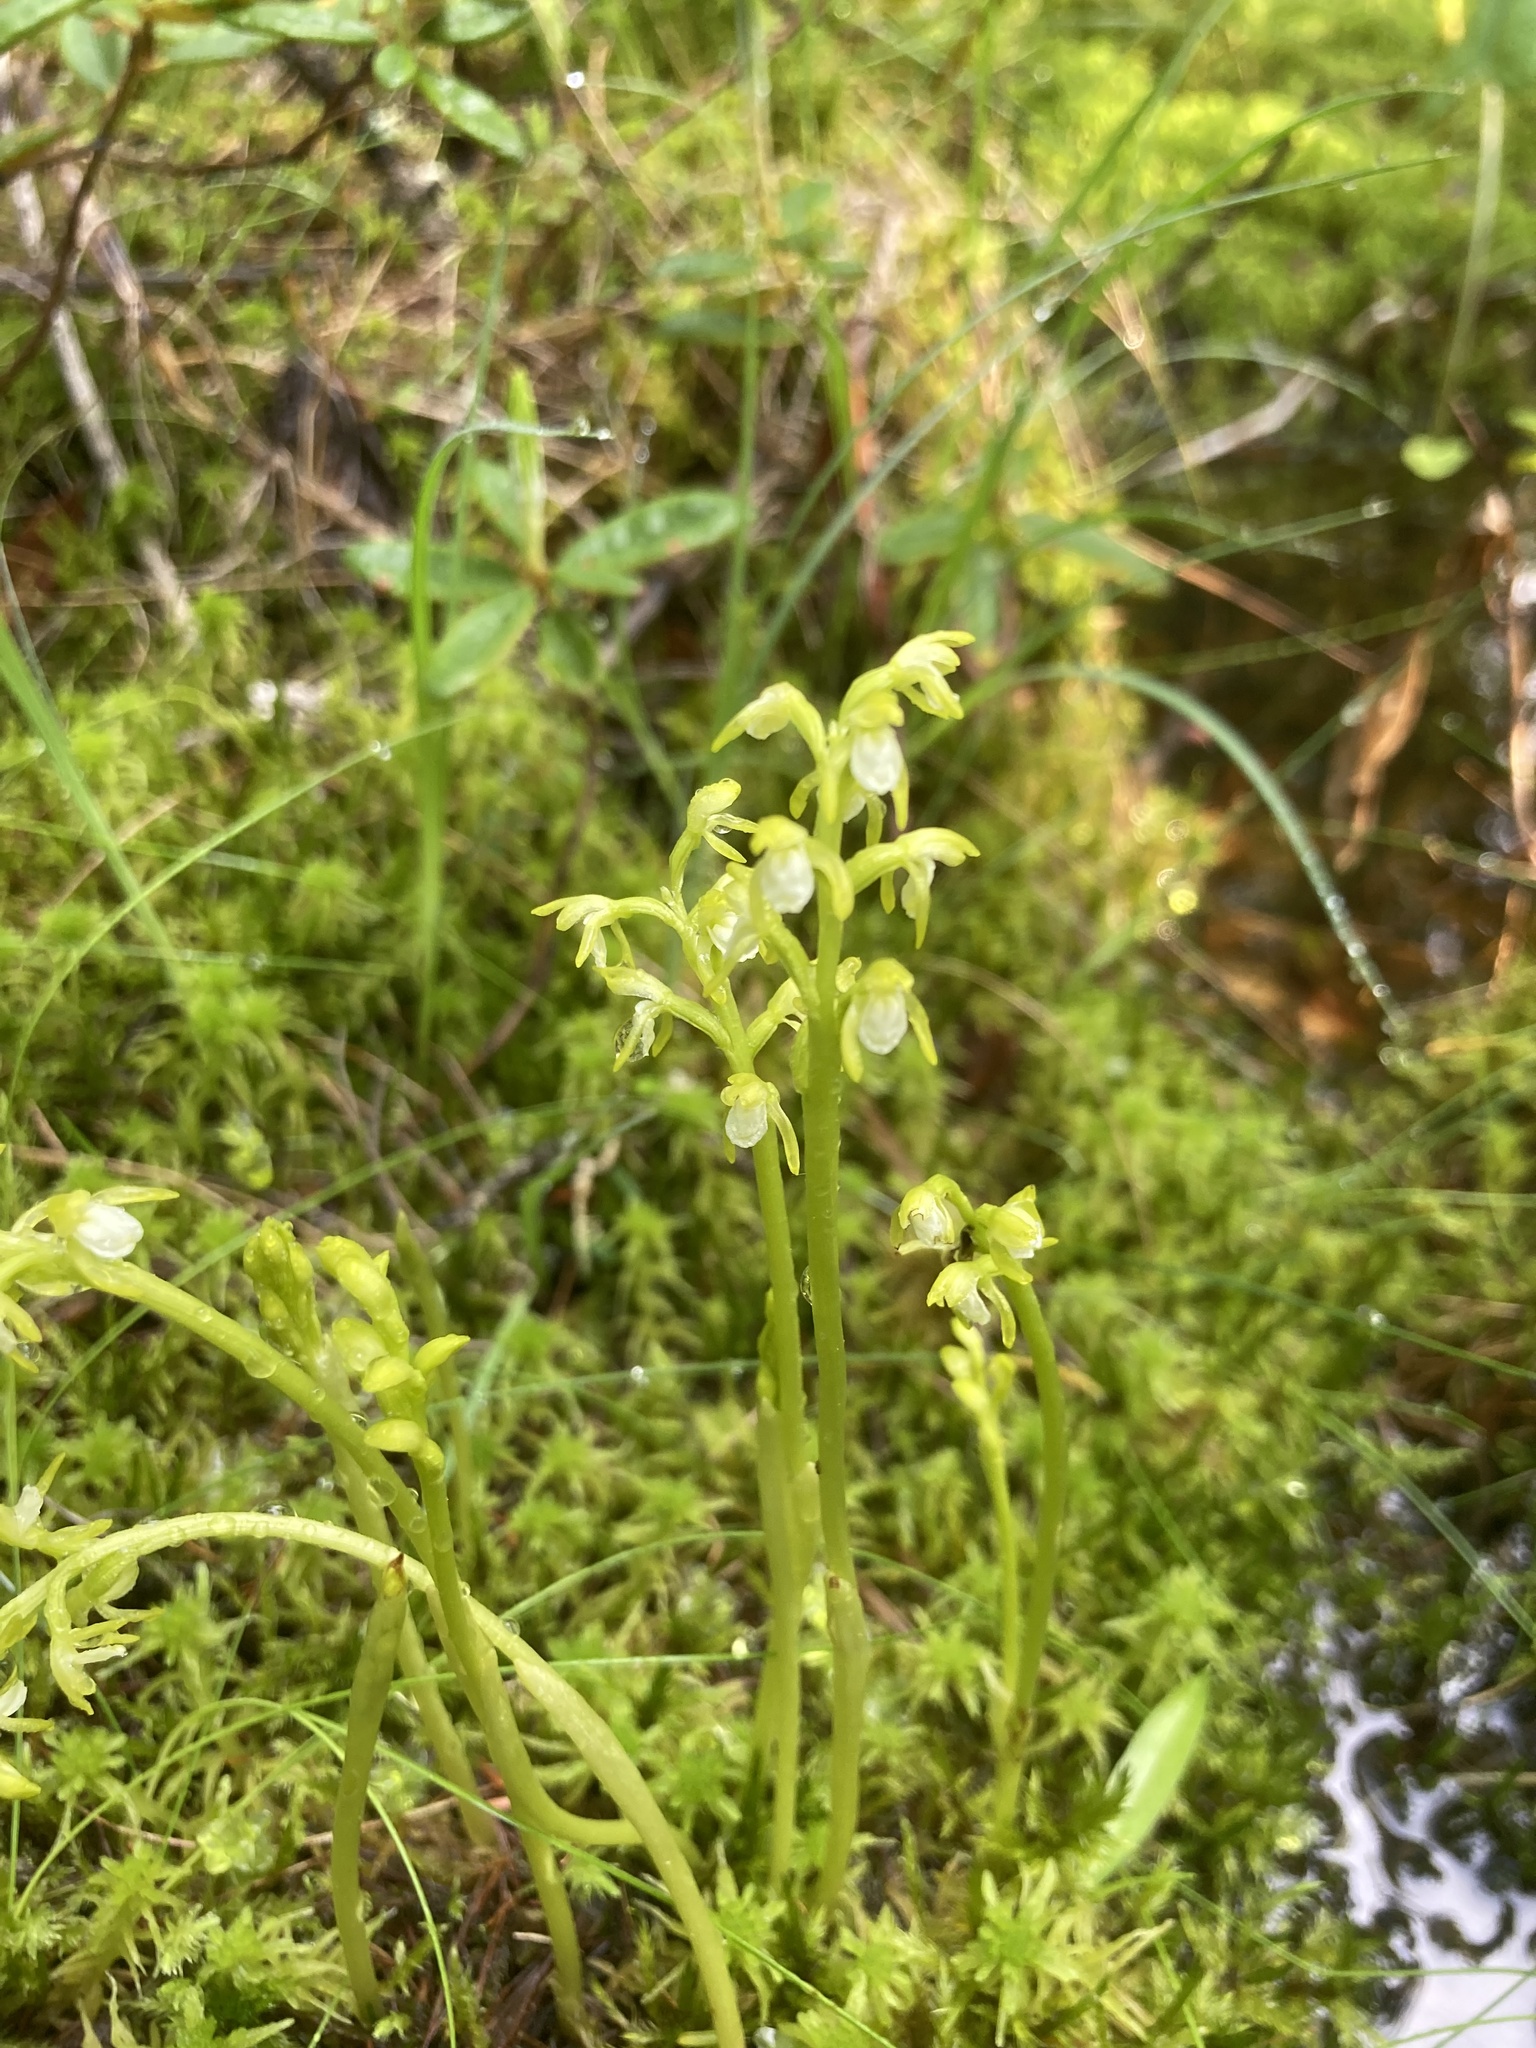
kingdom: Plantae
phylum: Tracheophyta
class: Liliopsida
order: Asparagales
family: Orchidaceae
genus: Corallorhiza
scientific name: Corallorhiza trifida
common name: Yellow coralroot
